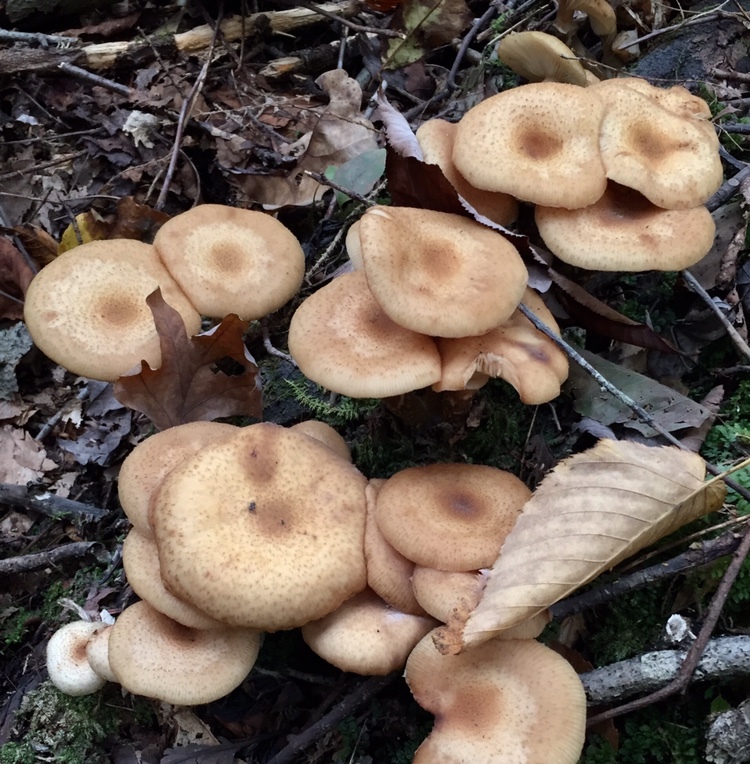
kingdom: Fungi
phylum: Basidiomycota
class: Agaricomycetes
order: Agaricales
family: Physalacriaceae
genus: Armillaria
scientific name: Armillaria mellea
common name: Honey fungus
